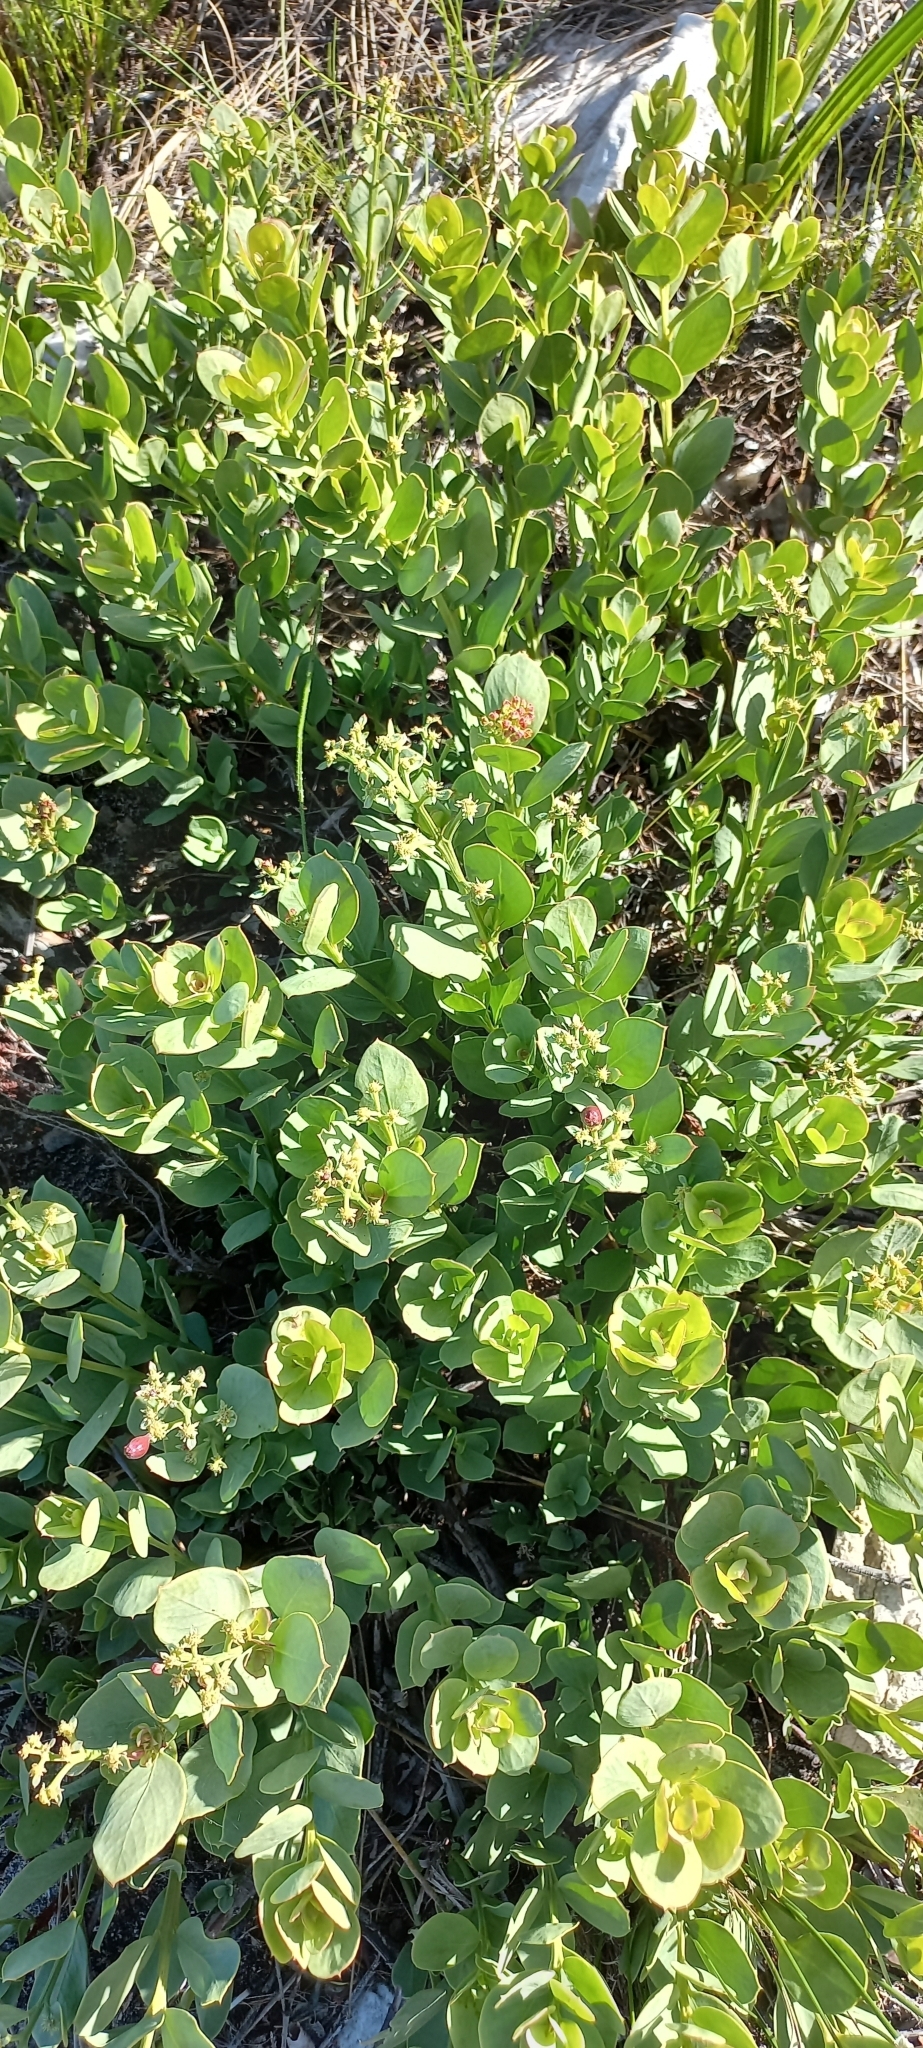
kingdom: Plantae
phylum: Tracheophyta
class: Magnoliopsida
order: Santalales
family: Santalaceae
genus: Osyris
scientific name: Osyris speciosa
